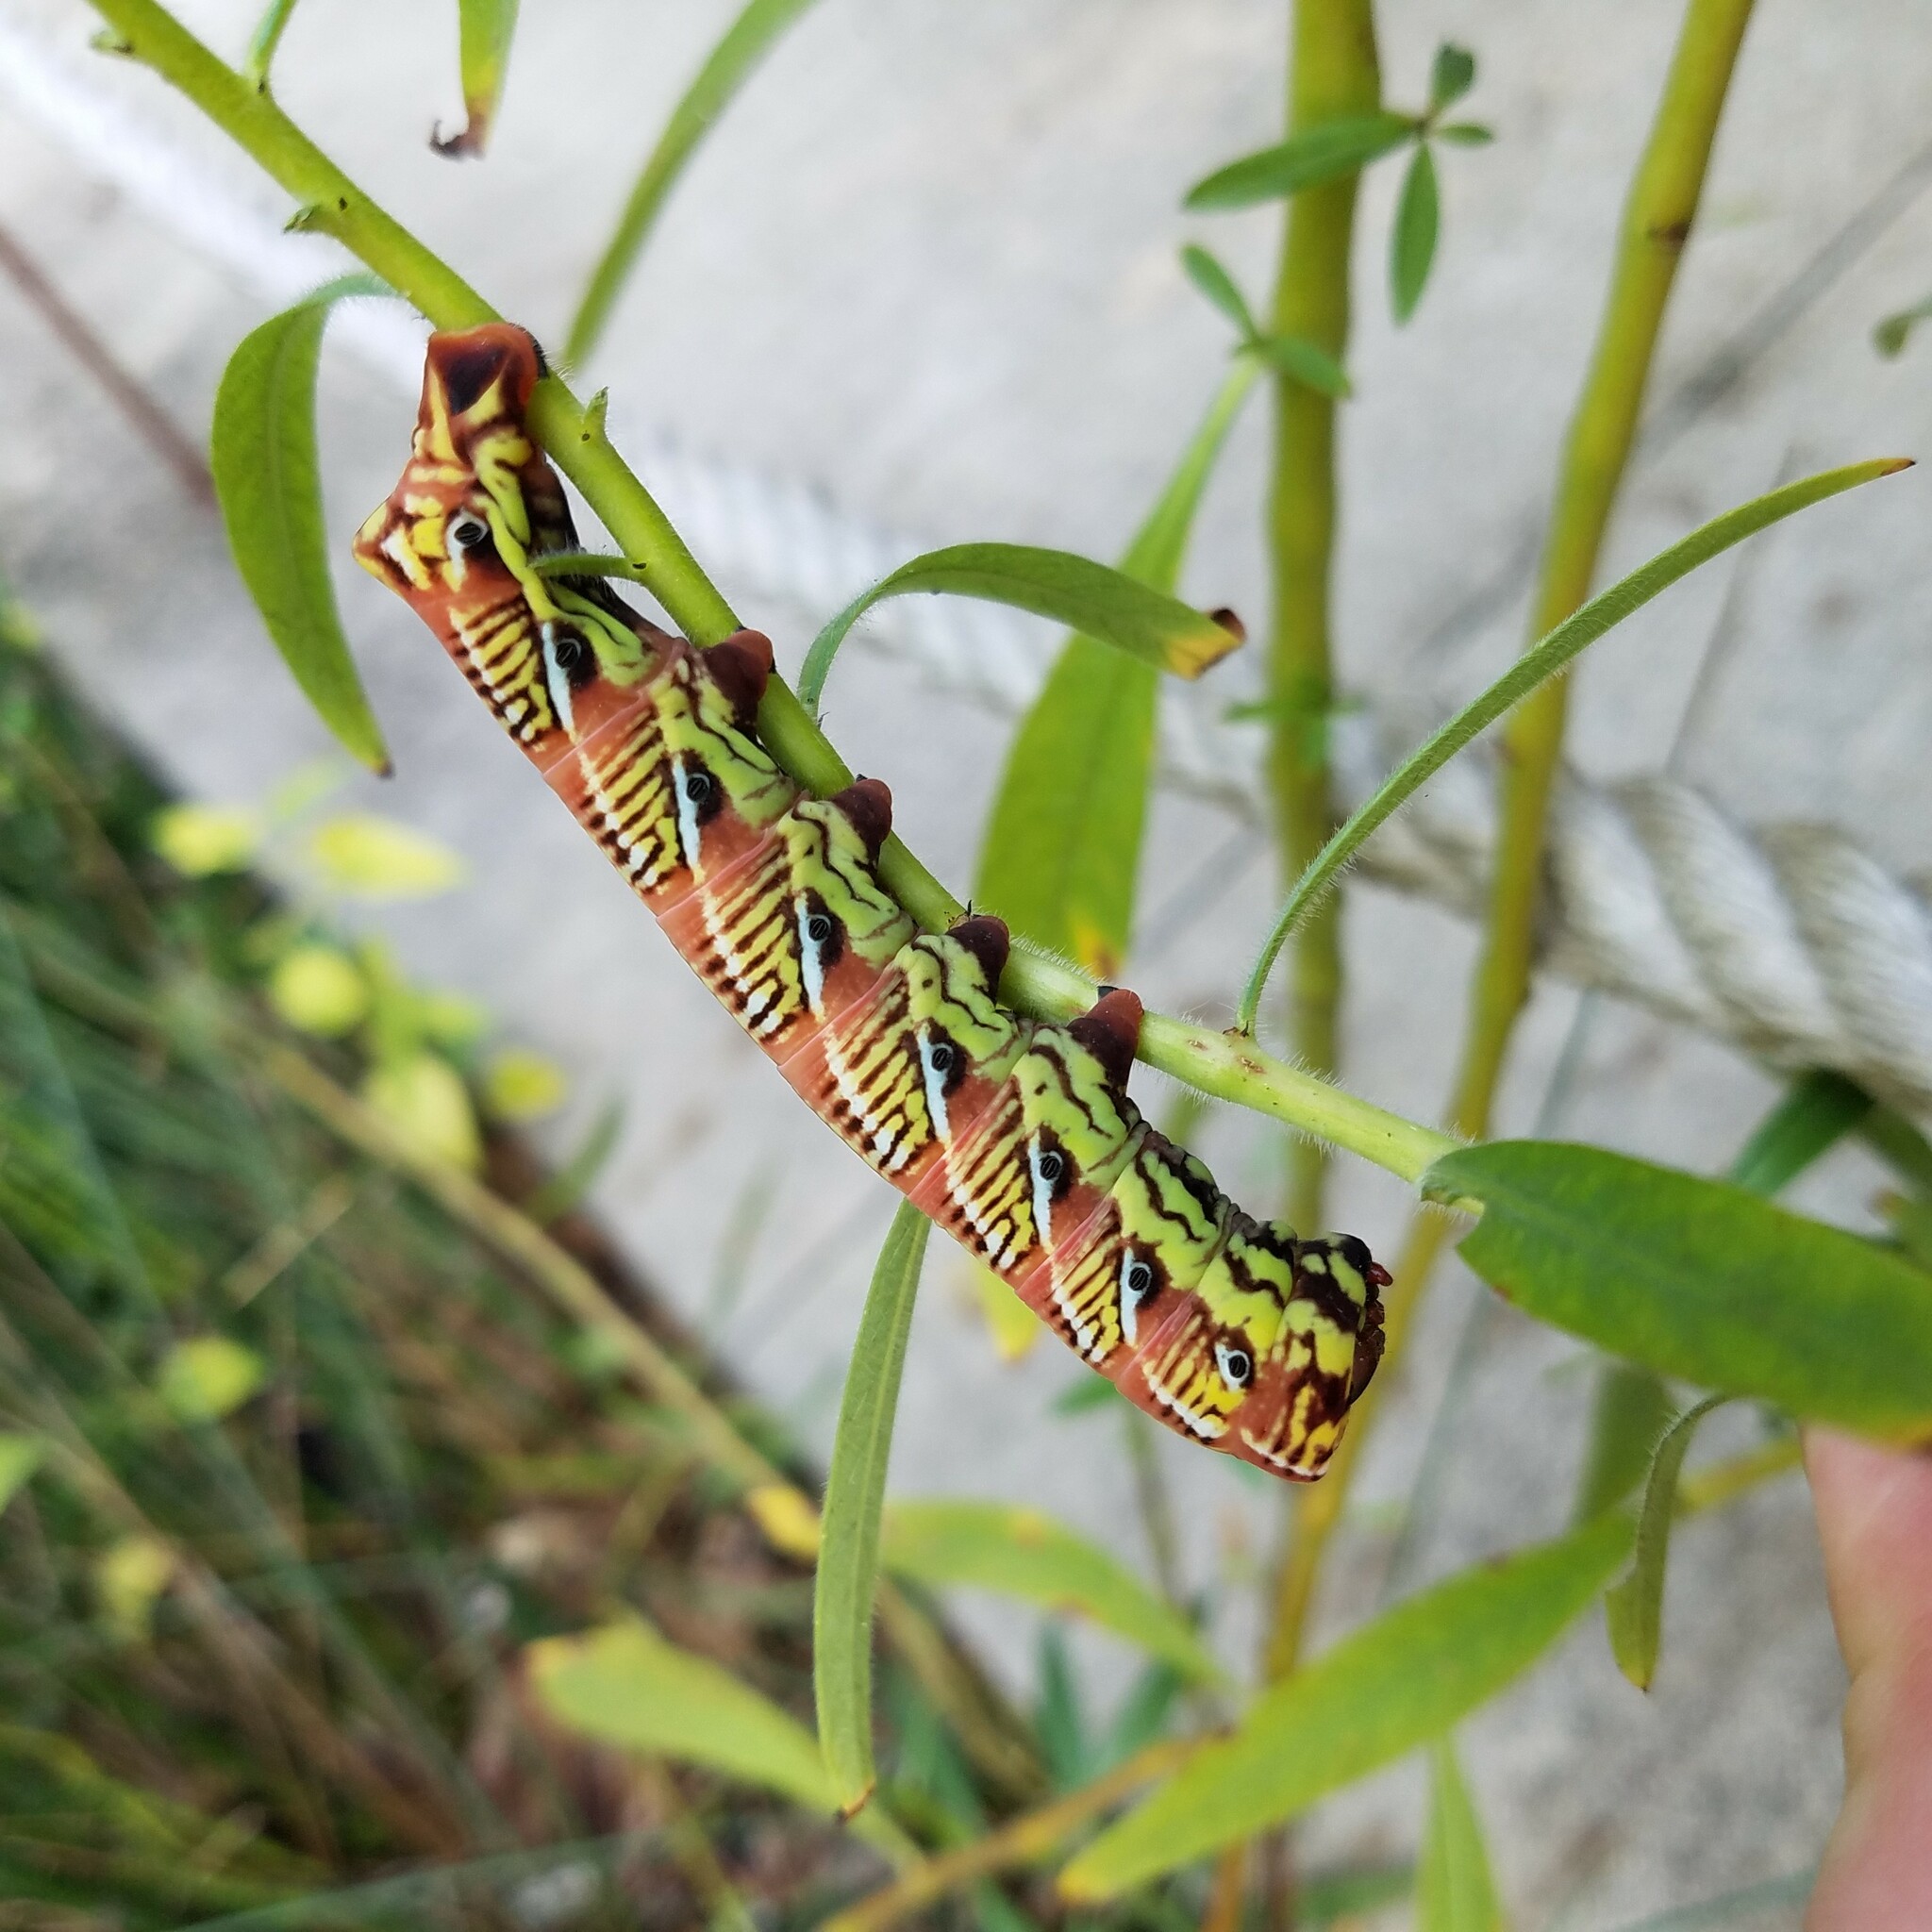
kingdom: Animalia
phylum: Arthropoda
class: Insecta
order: Lepidoptera
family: Sphingidae
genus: Eumorpha
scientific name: Eumorpha fasciatus
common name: Banded sphinx
